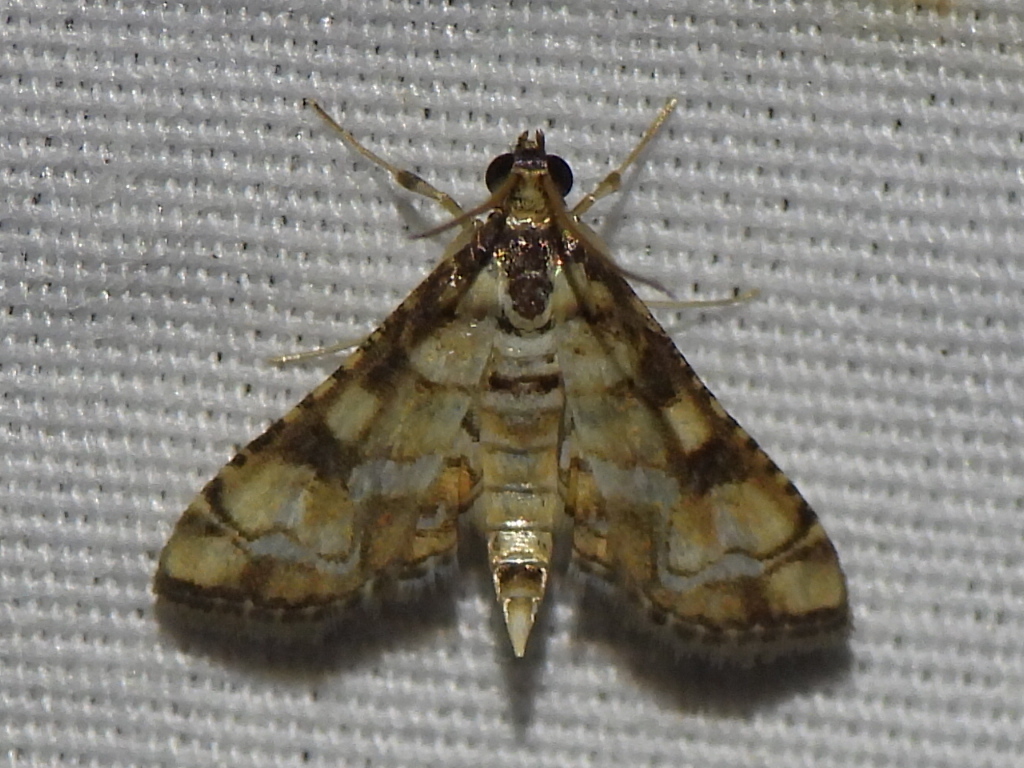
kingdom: Animalia
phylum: Arthropoda
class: Insecta
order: Lepidoptera
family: Crambidae
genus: Hileithia
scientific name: Hileithia magualis
